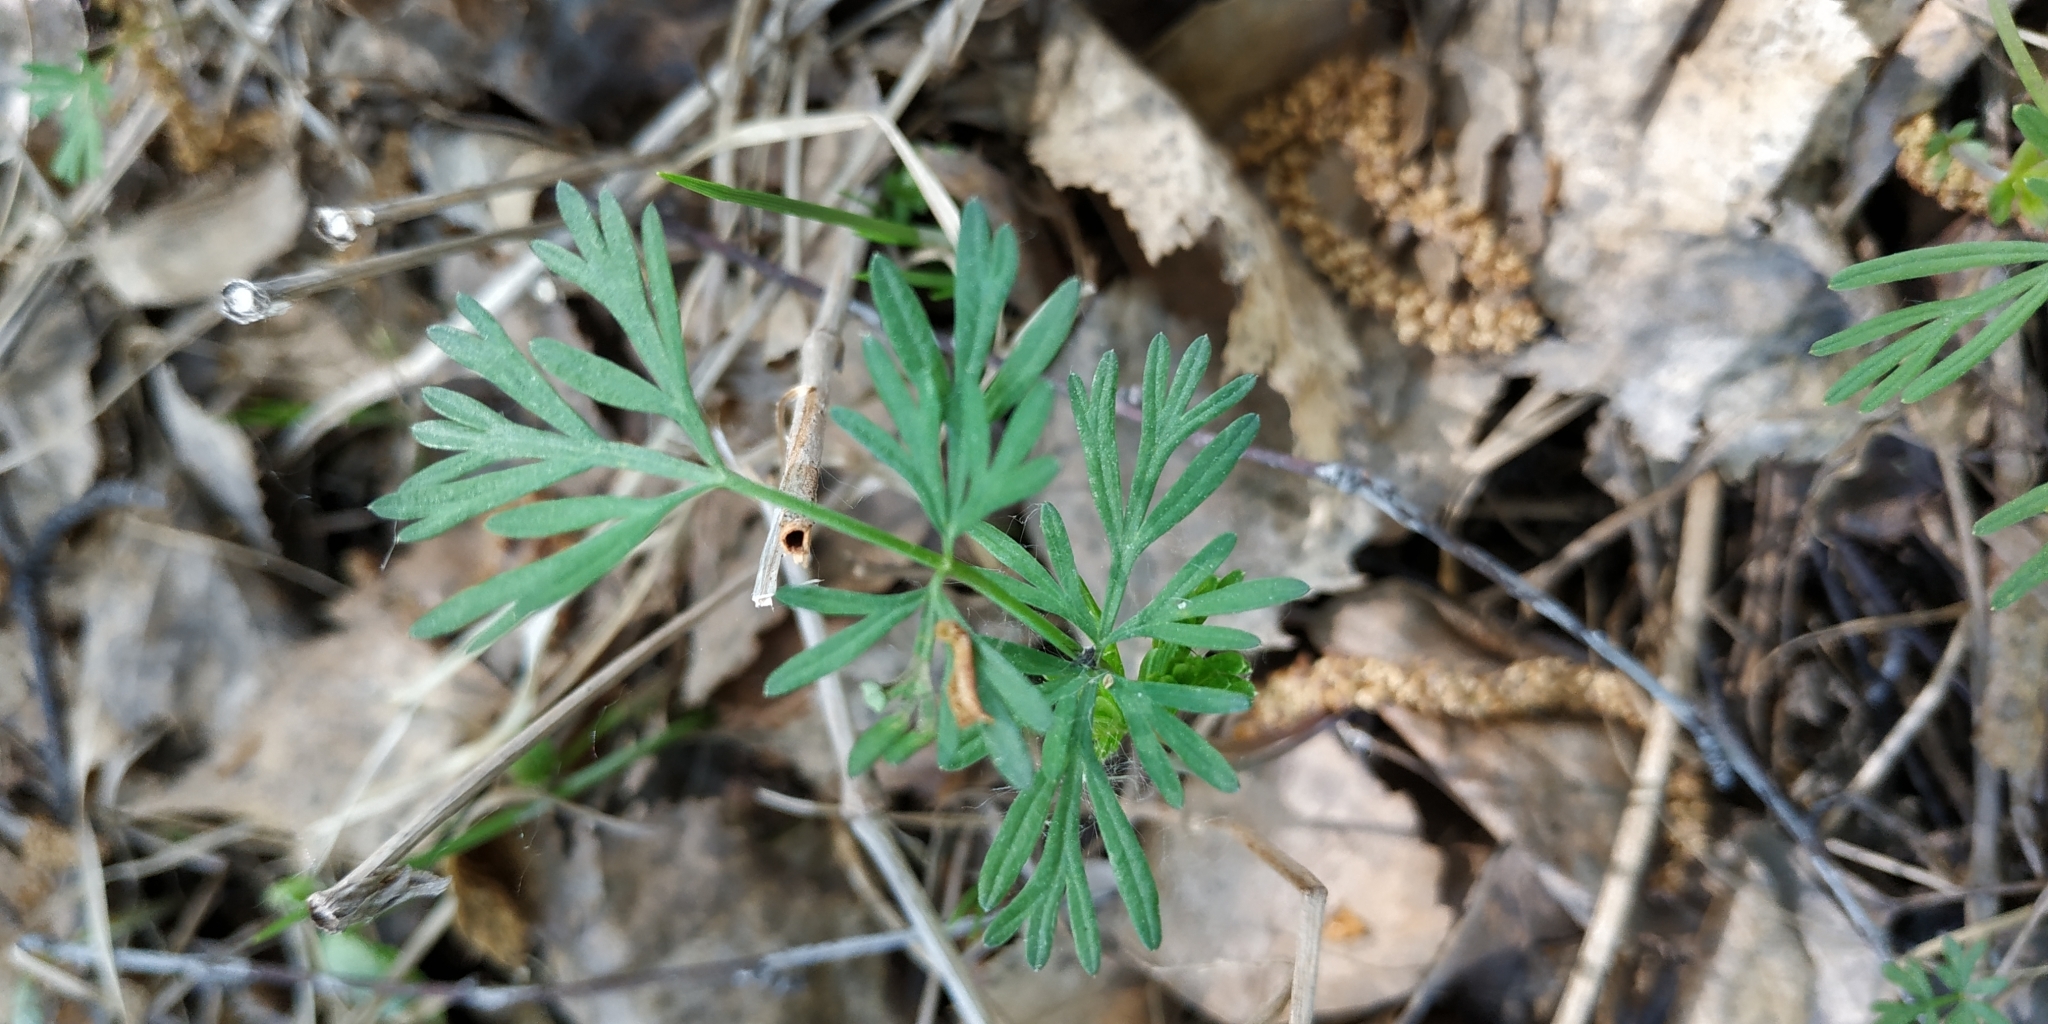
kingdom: Plantae
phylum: Tracheophyta
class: Magnoliopsida
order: Apiales
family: Apiaceae
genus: Kadenia
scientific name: Kadenia dubia
